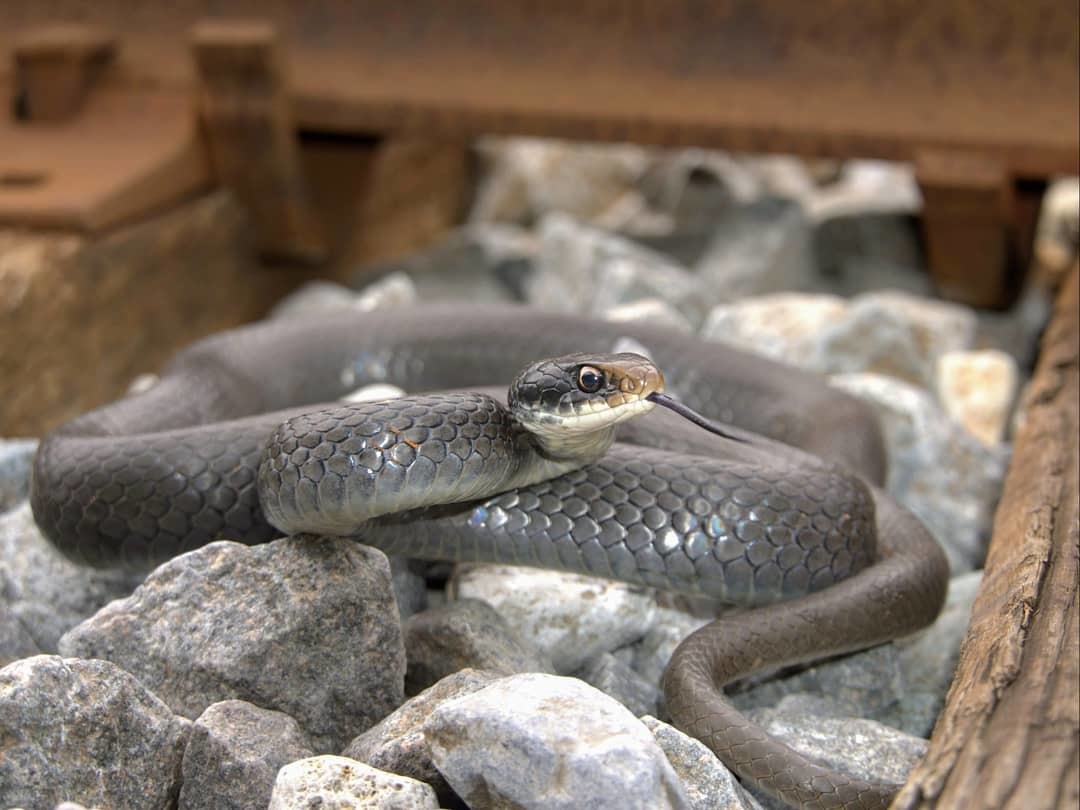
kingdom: Animalia
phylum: Chordata
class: Squamata
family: Colubridae
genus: Coluber
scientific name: Coluber constrictor
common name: Eastern racer
